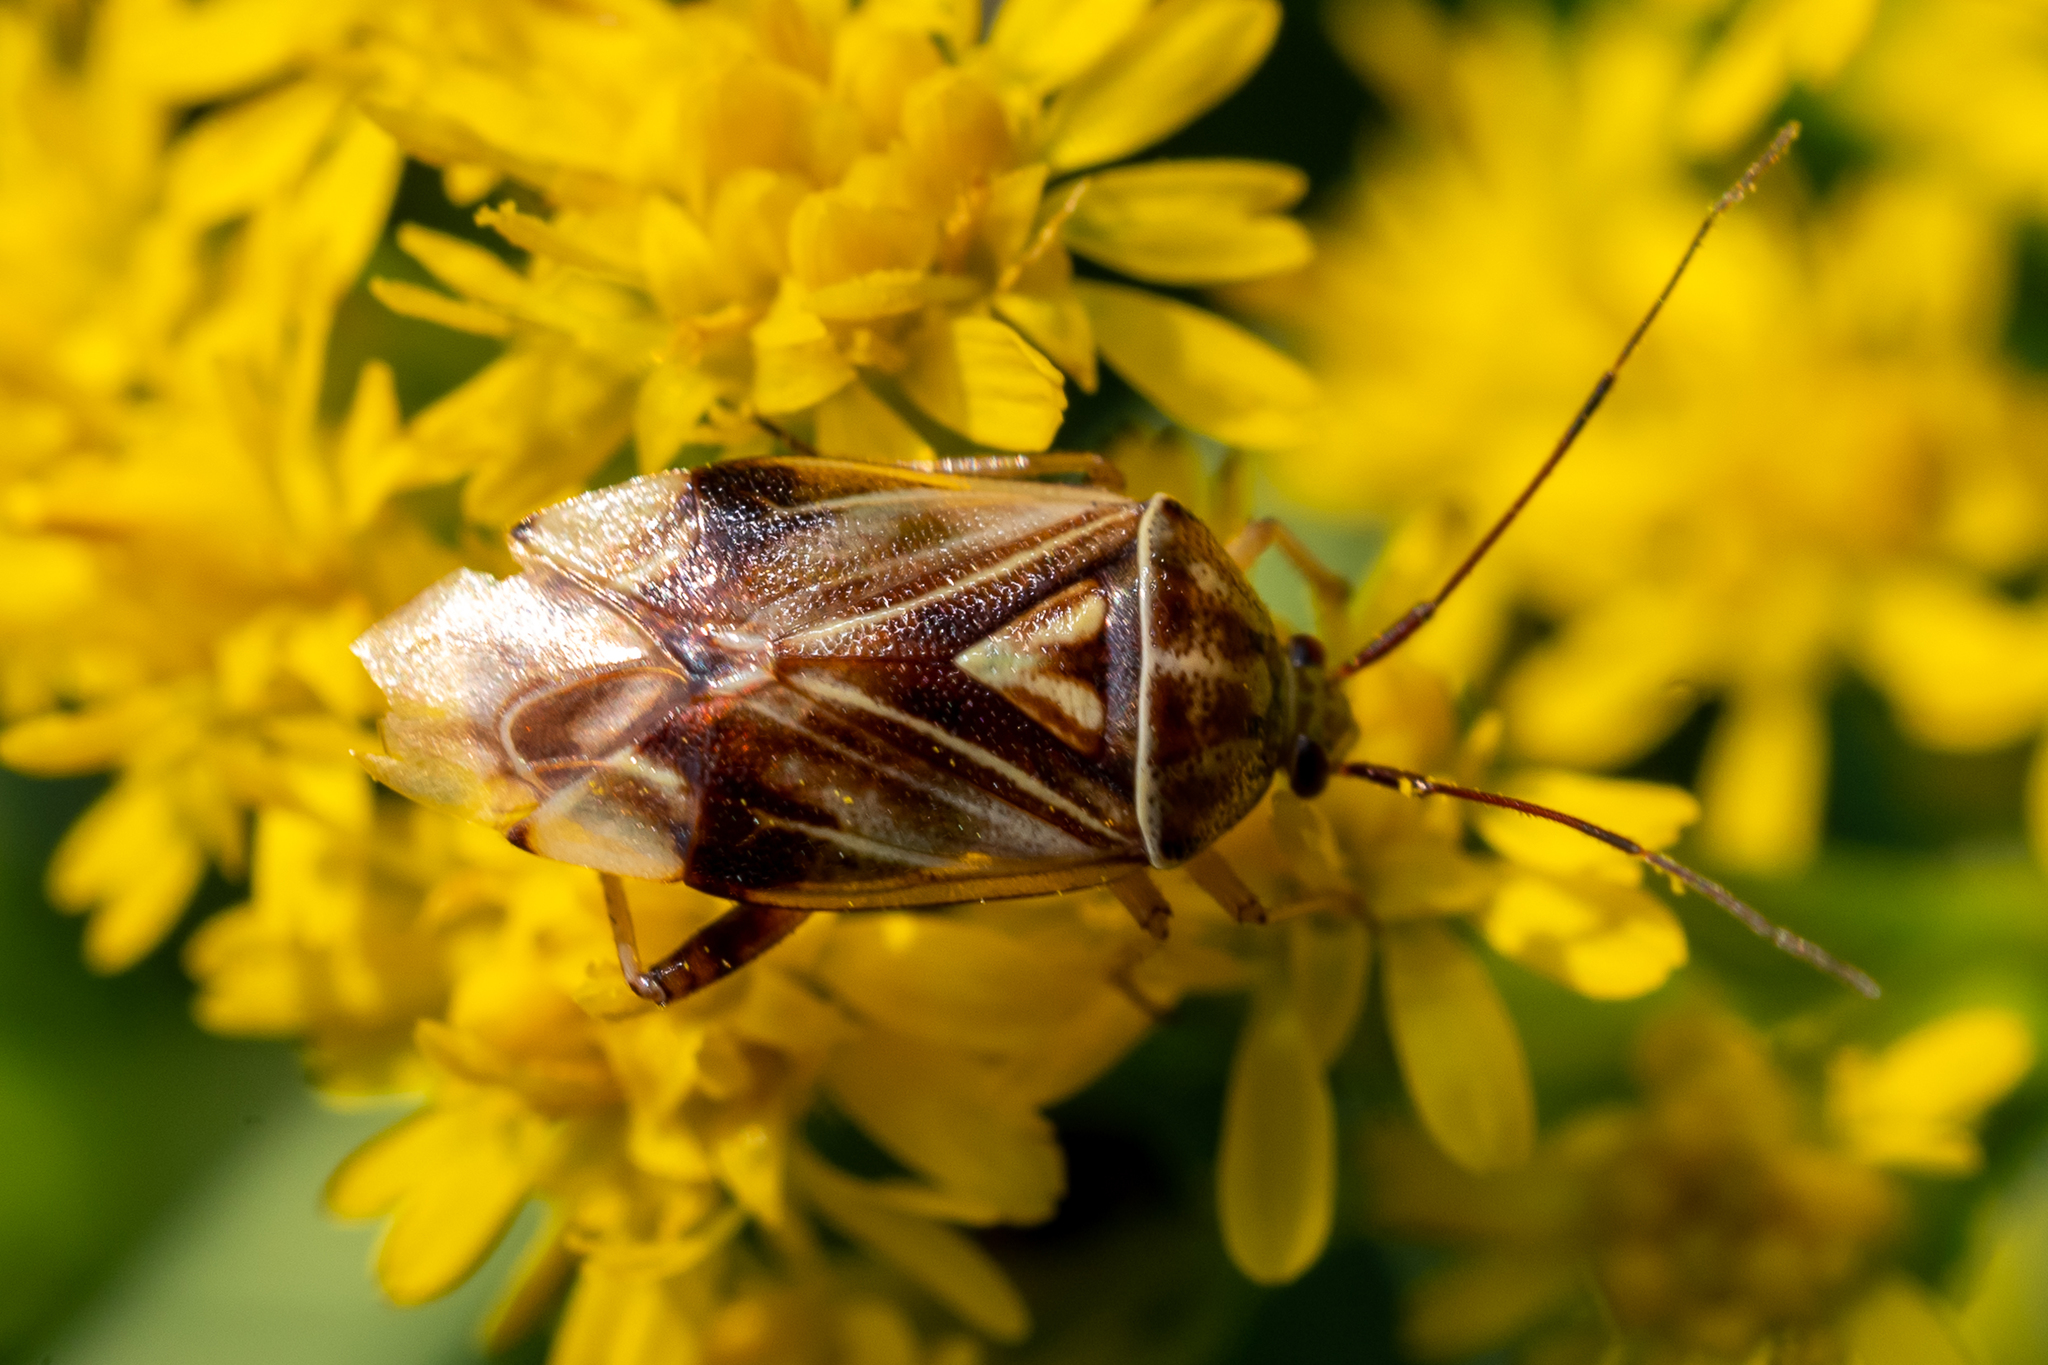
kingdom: Animalia
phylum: Arthropoda
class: Insecta
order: Hemiptera
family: Miridae
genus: Lygus
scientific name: Lygus lineolaris
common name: North american tarnished plant bug
